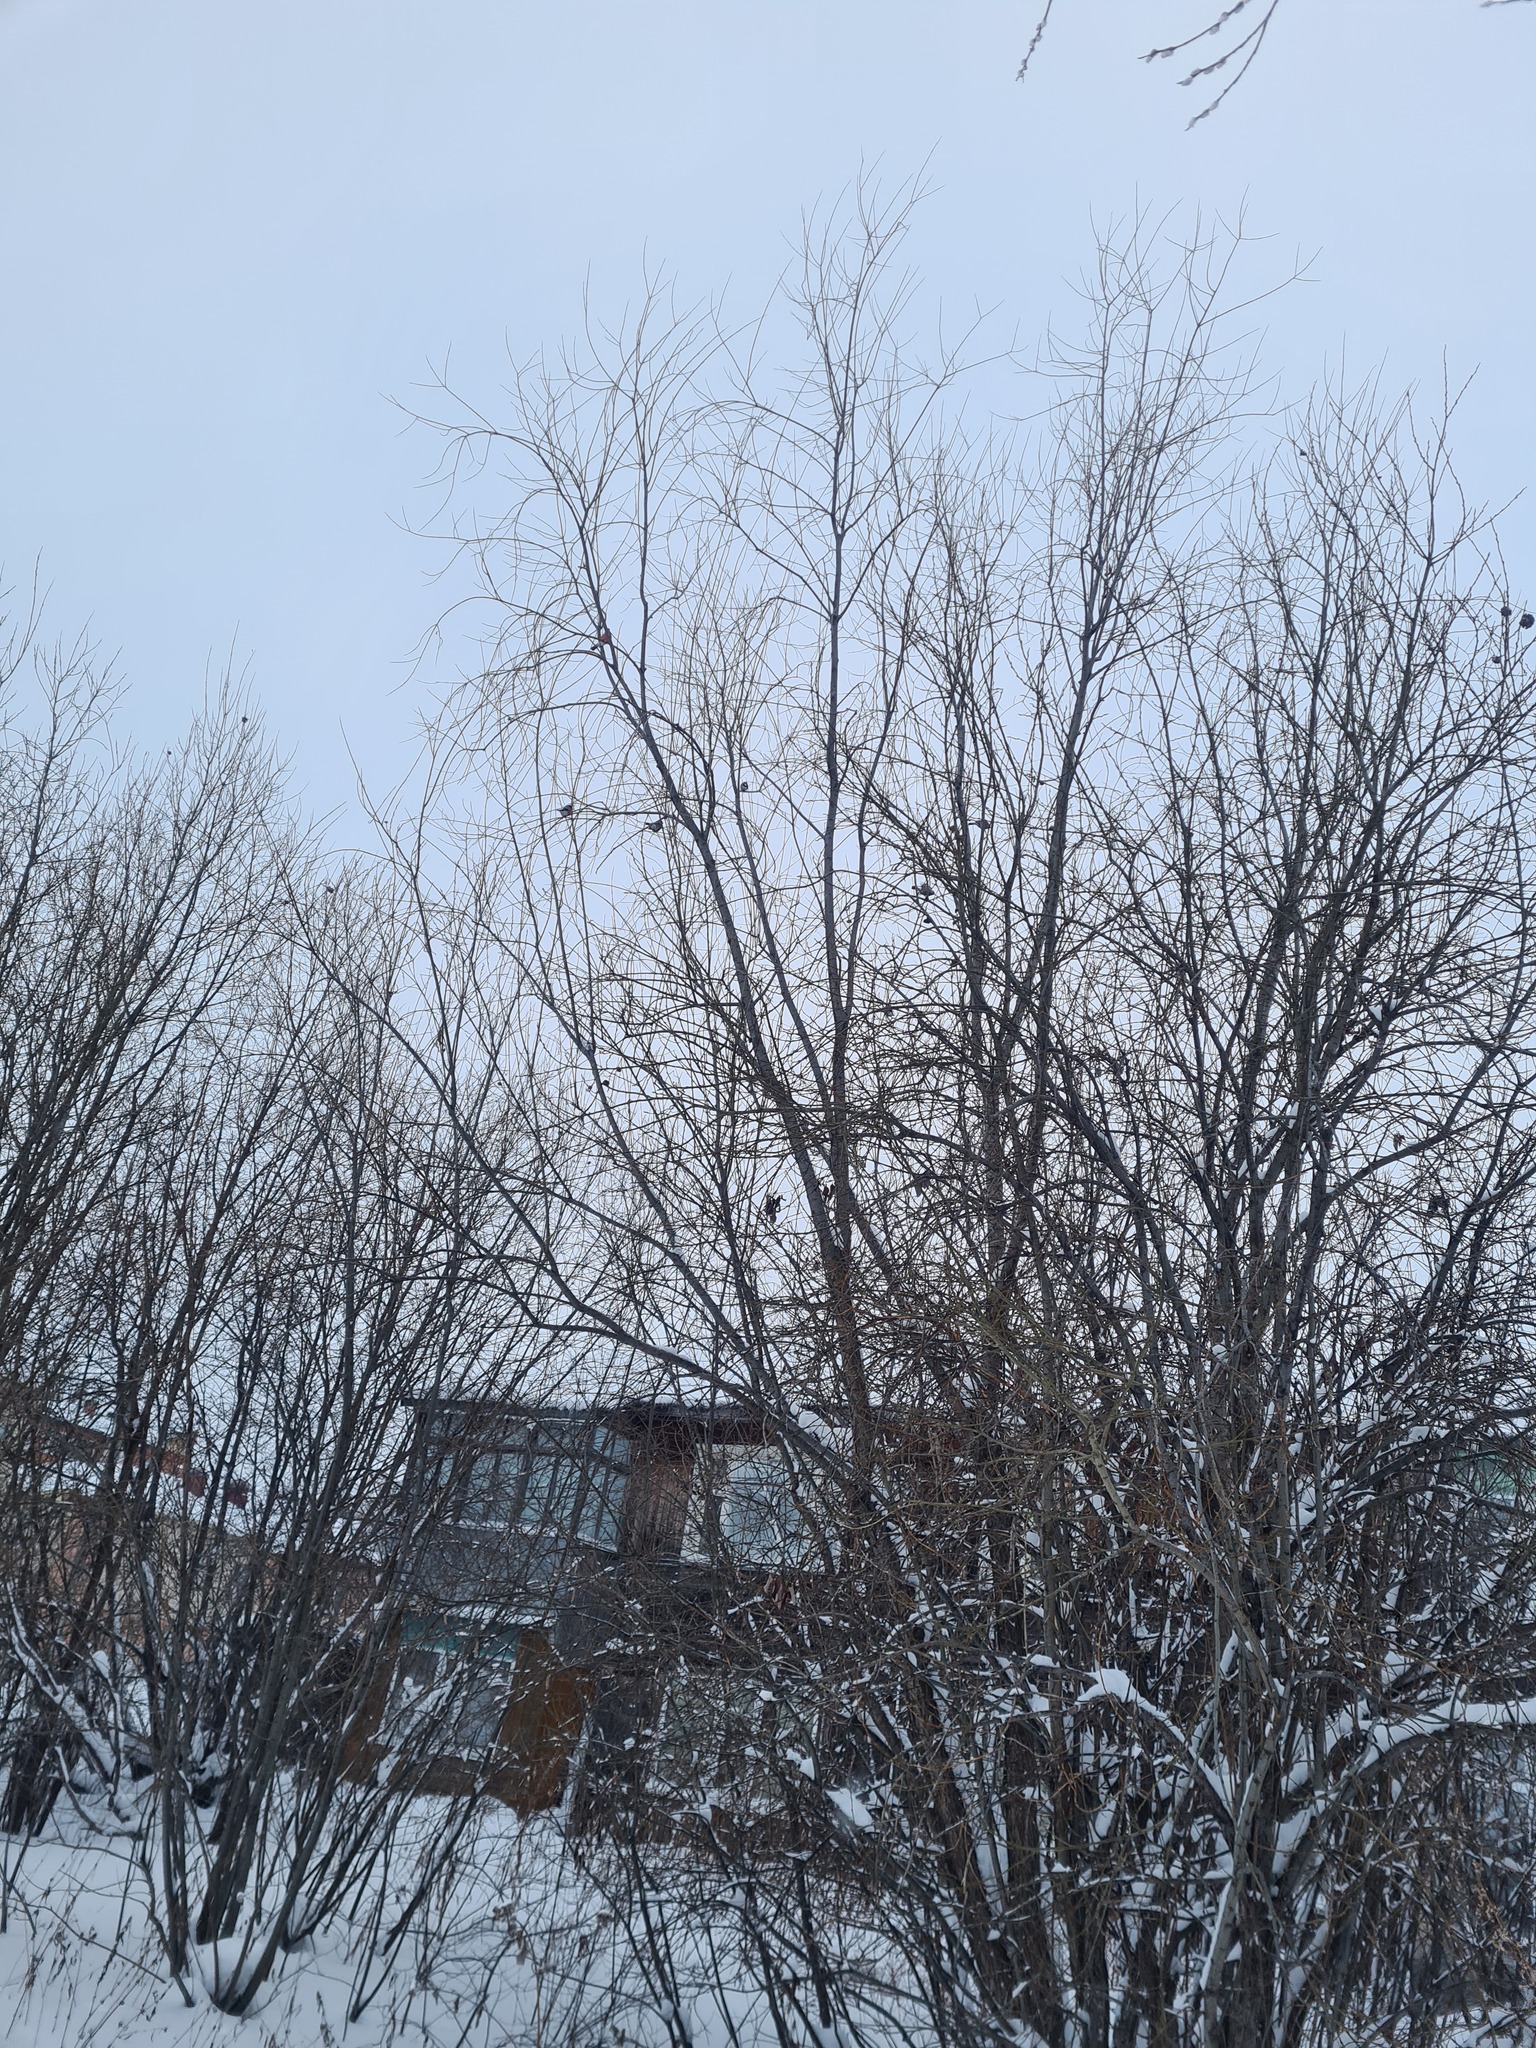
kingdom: Animalia
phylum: Chordata
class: Aves
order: Passeriformes
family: Fringillidae
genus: Pyrrhula
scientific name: Pyrrhula pyrrhula
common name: Eurasian bullfinch
